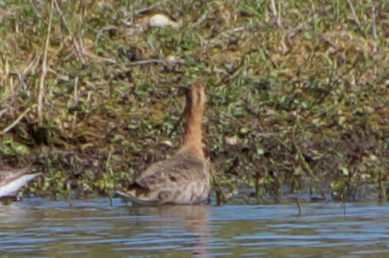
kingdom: Animalia
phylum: Chordata
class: Aves
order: Charadriiformes
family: Scolopacidae
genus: Limosa
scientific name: Limosa limosa
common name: Black-tailed godwit
